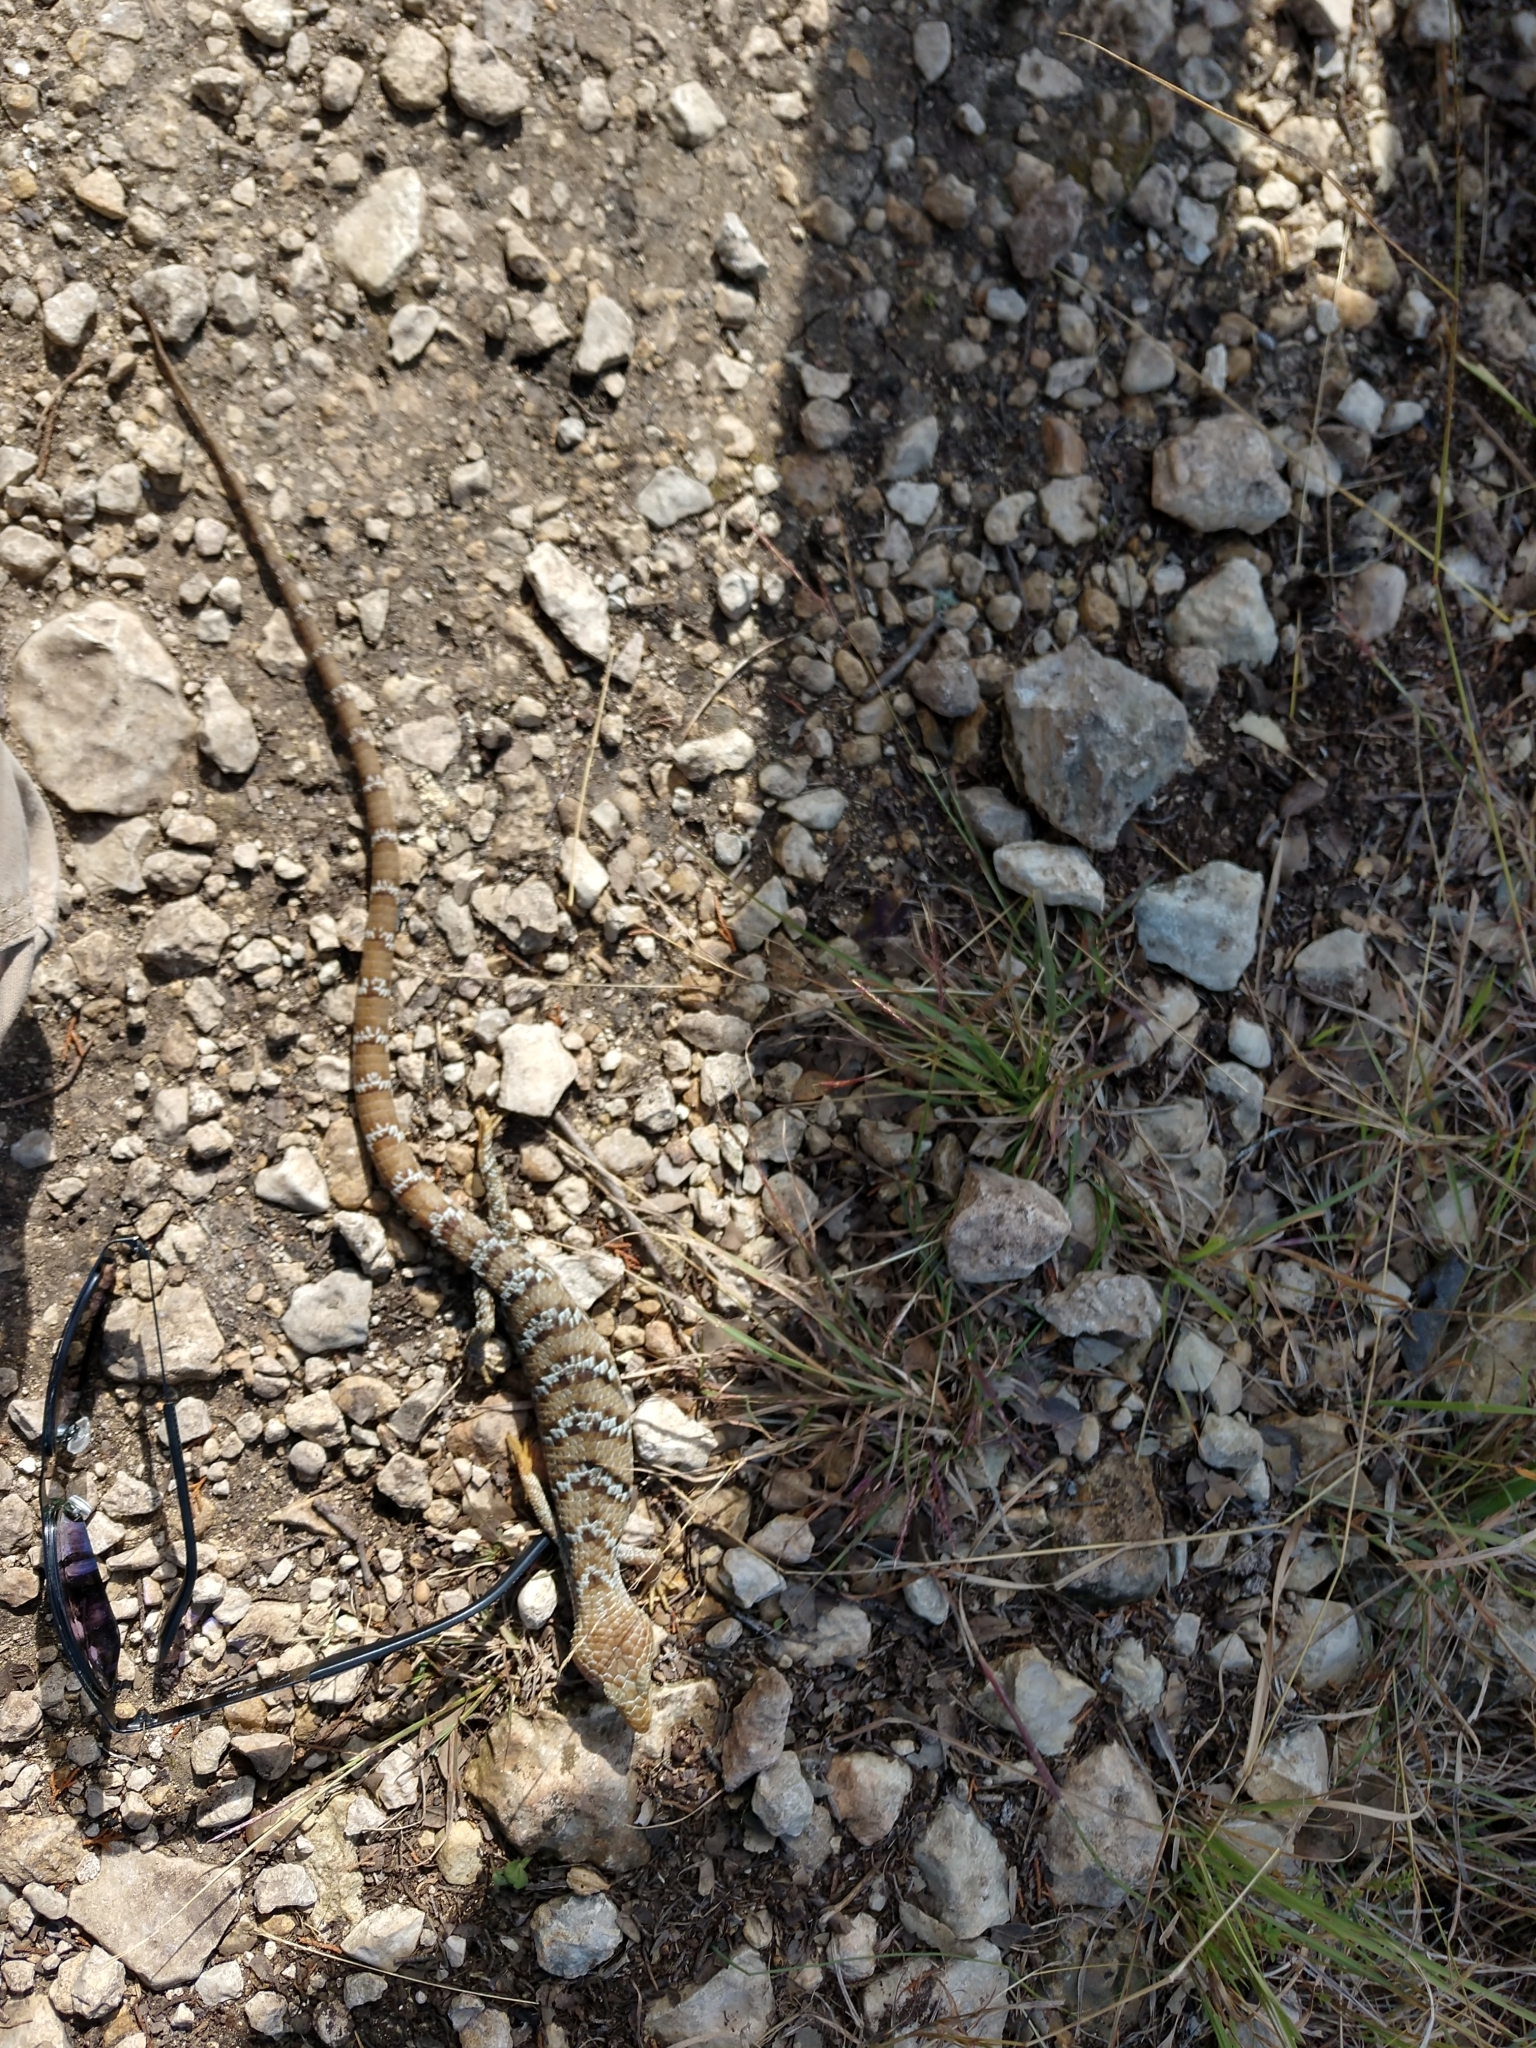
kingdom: Animalia
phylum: Chordata
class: Squamata
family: Anguidae
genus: Gerrhonotus
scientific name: Gerrhonotus infernalis
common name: Texas alligator lizard
